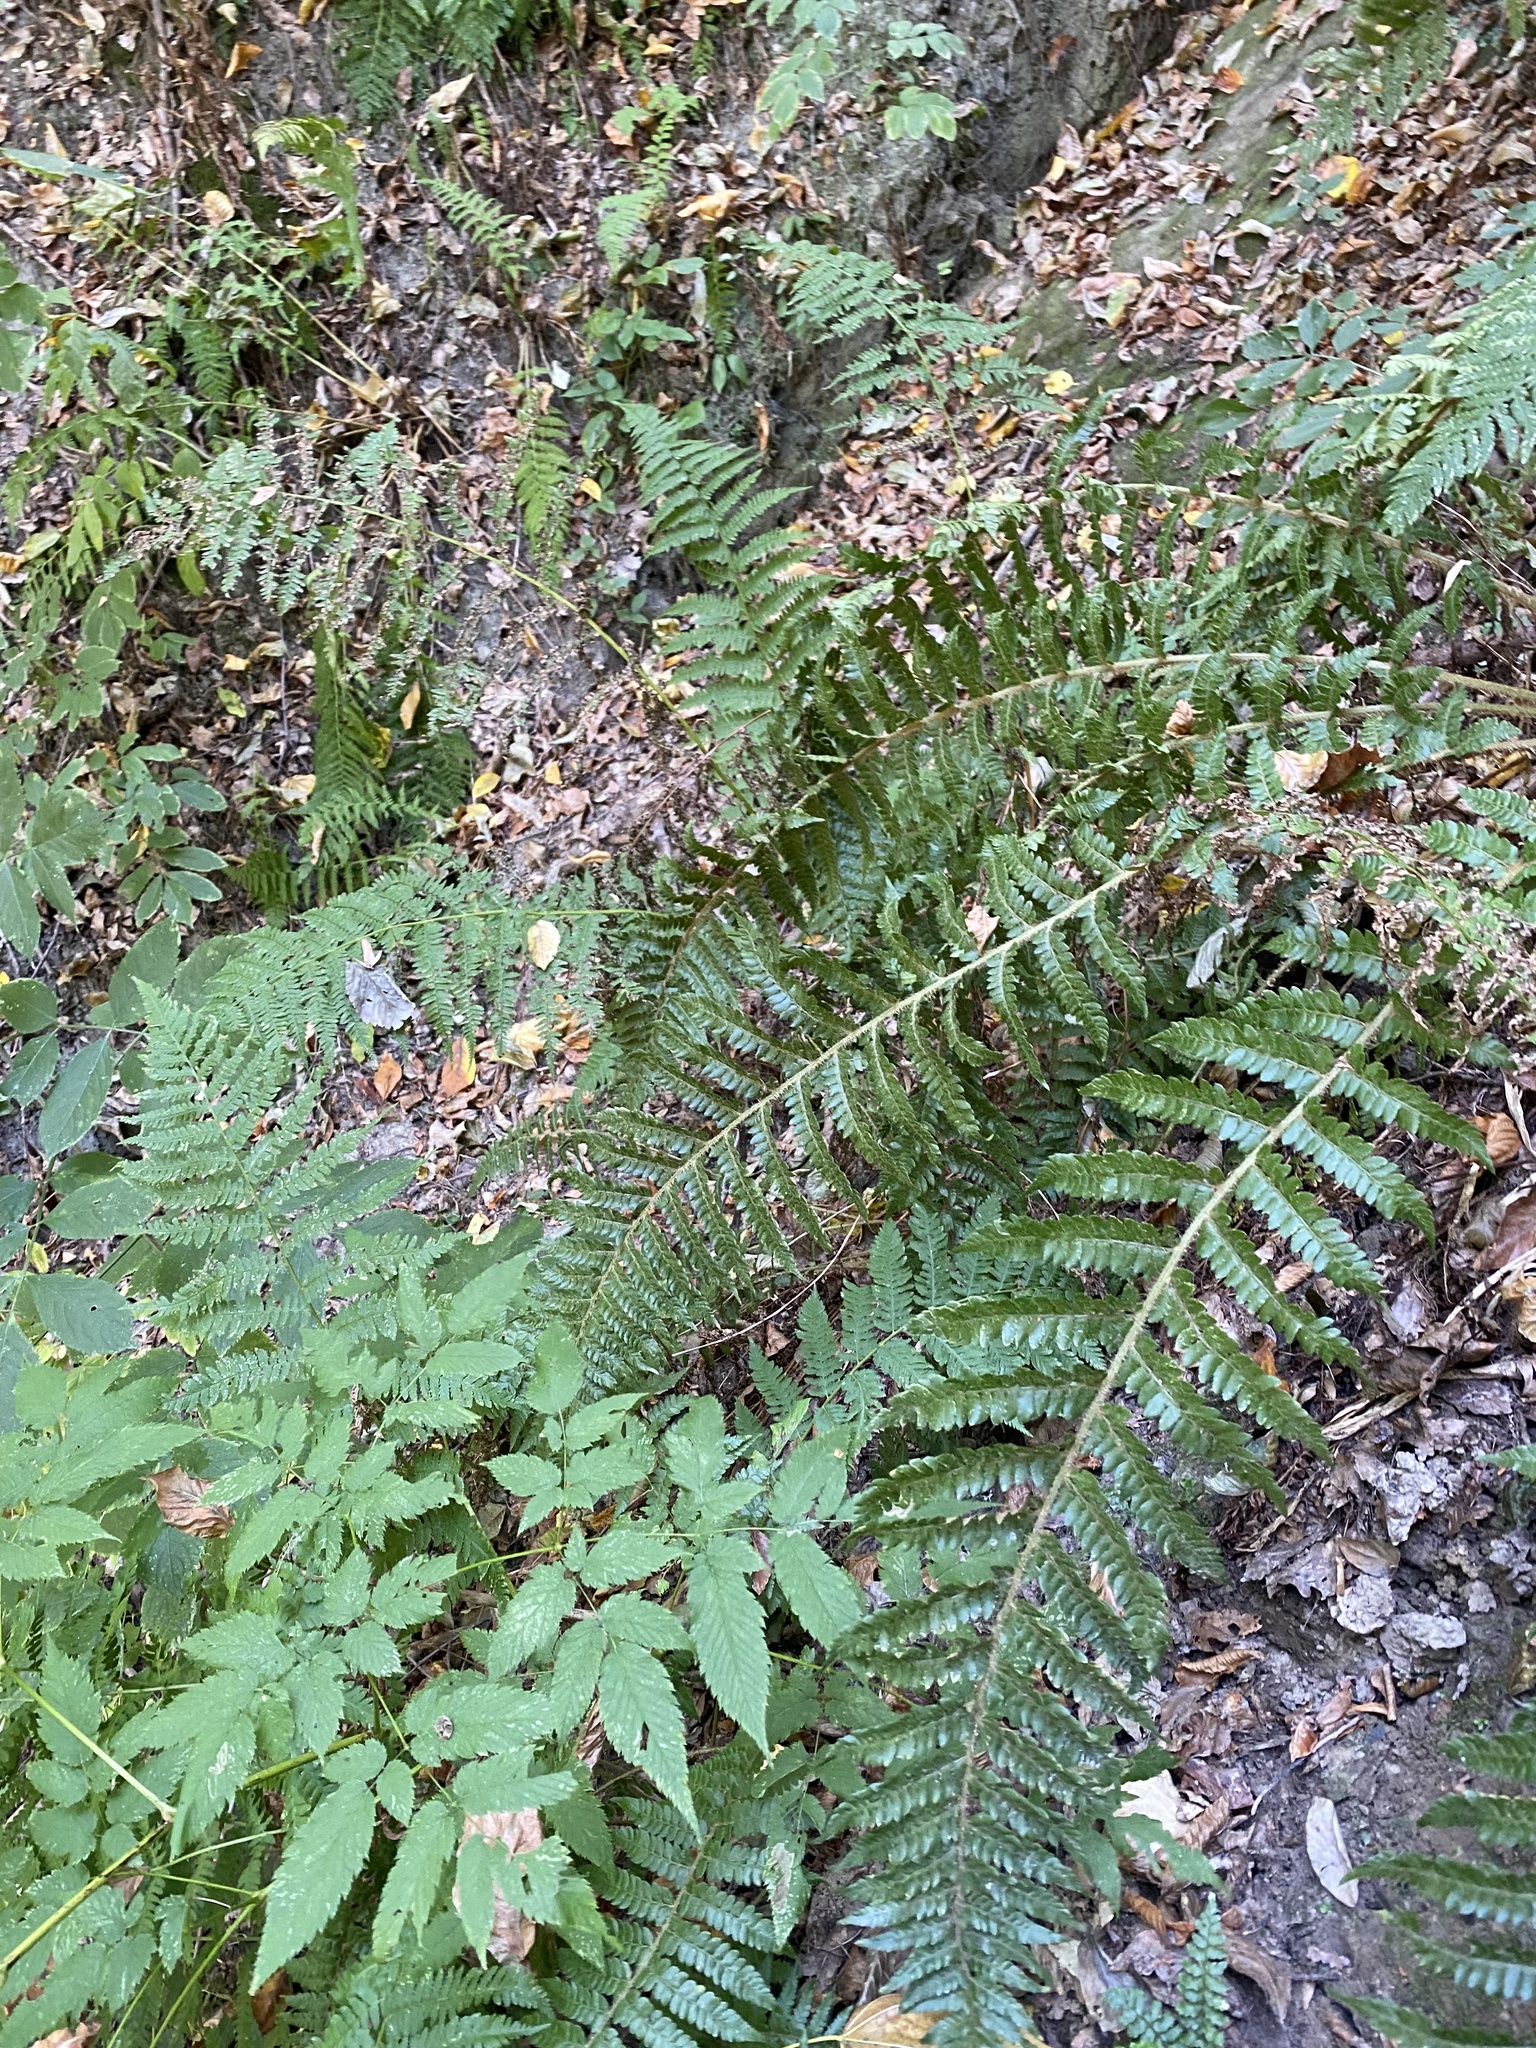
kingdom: Plantae
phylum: Tracheophyta
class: Polypodiopsida
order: Polypodiales
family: Dryopteridaceae
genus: Polystichum
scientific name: Polystichum braunii
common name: Braun's holly fern
